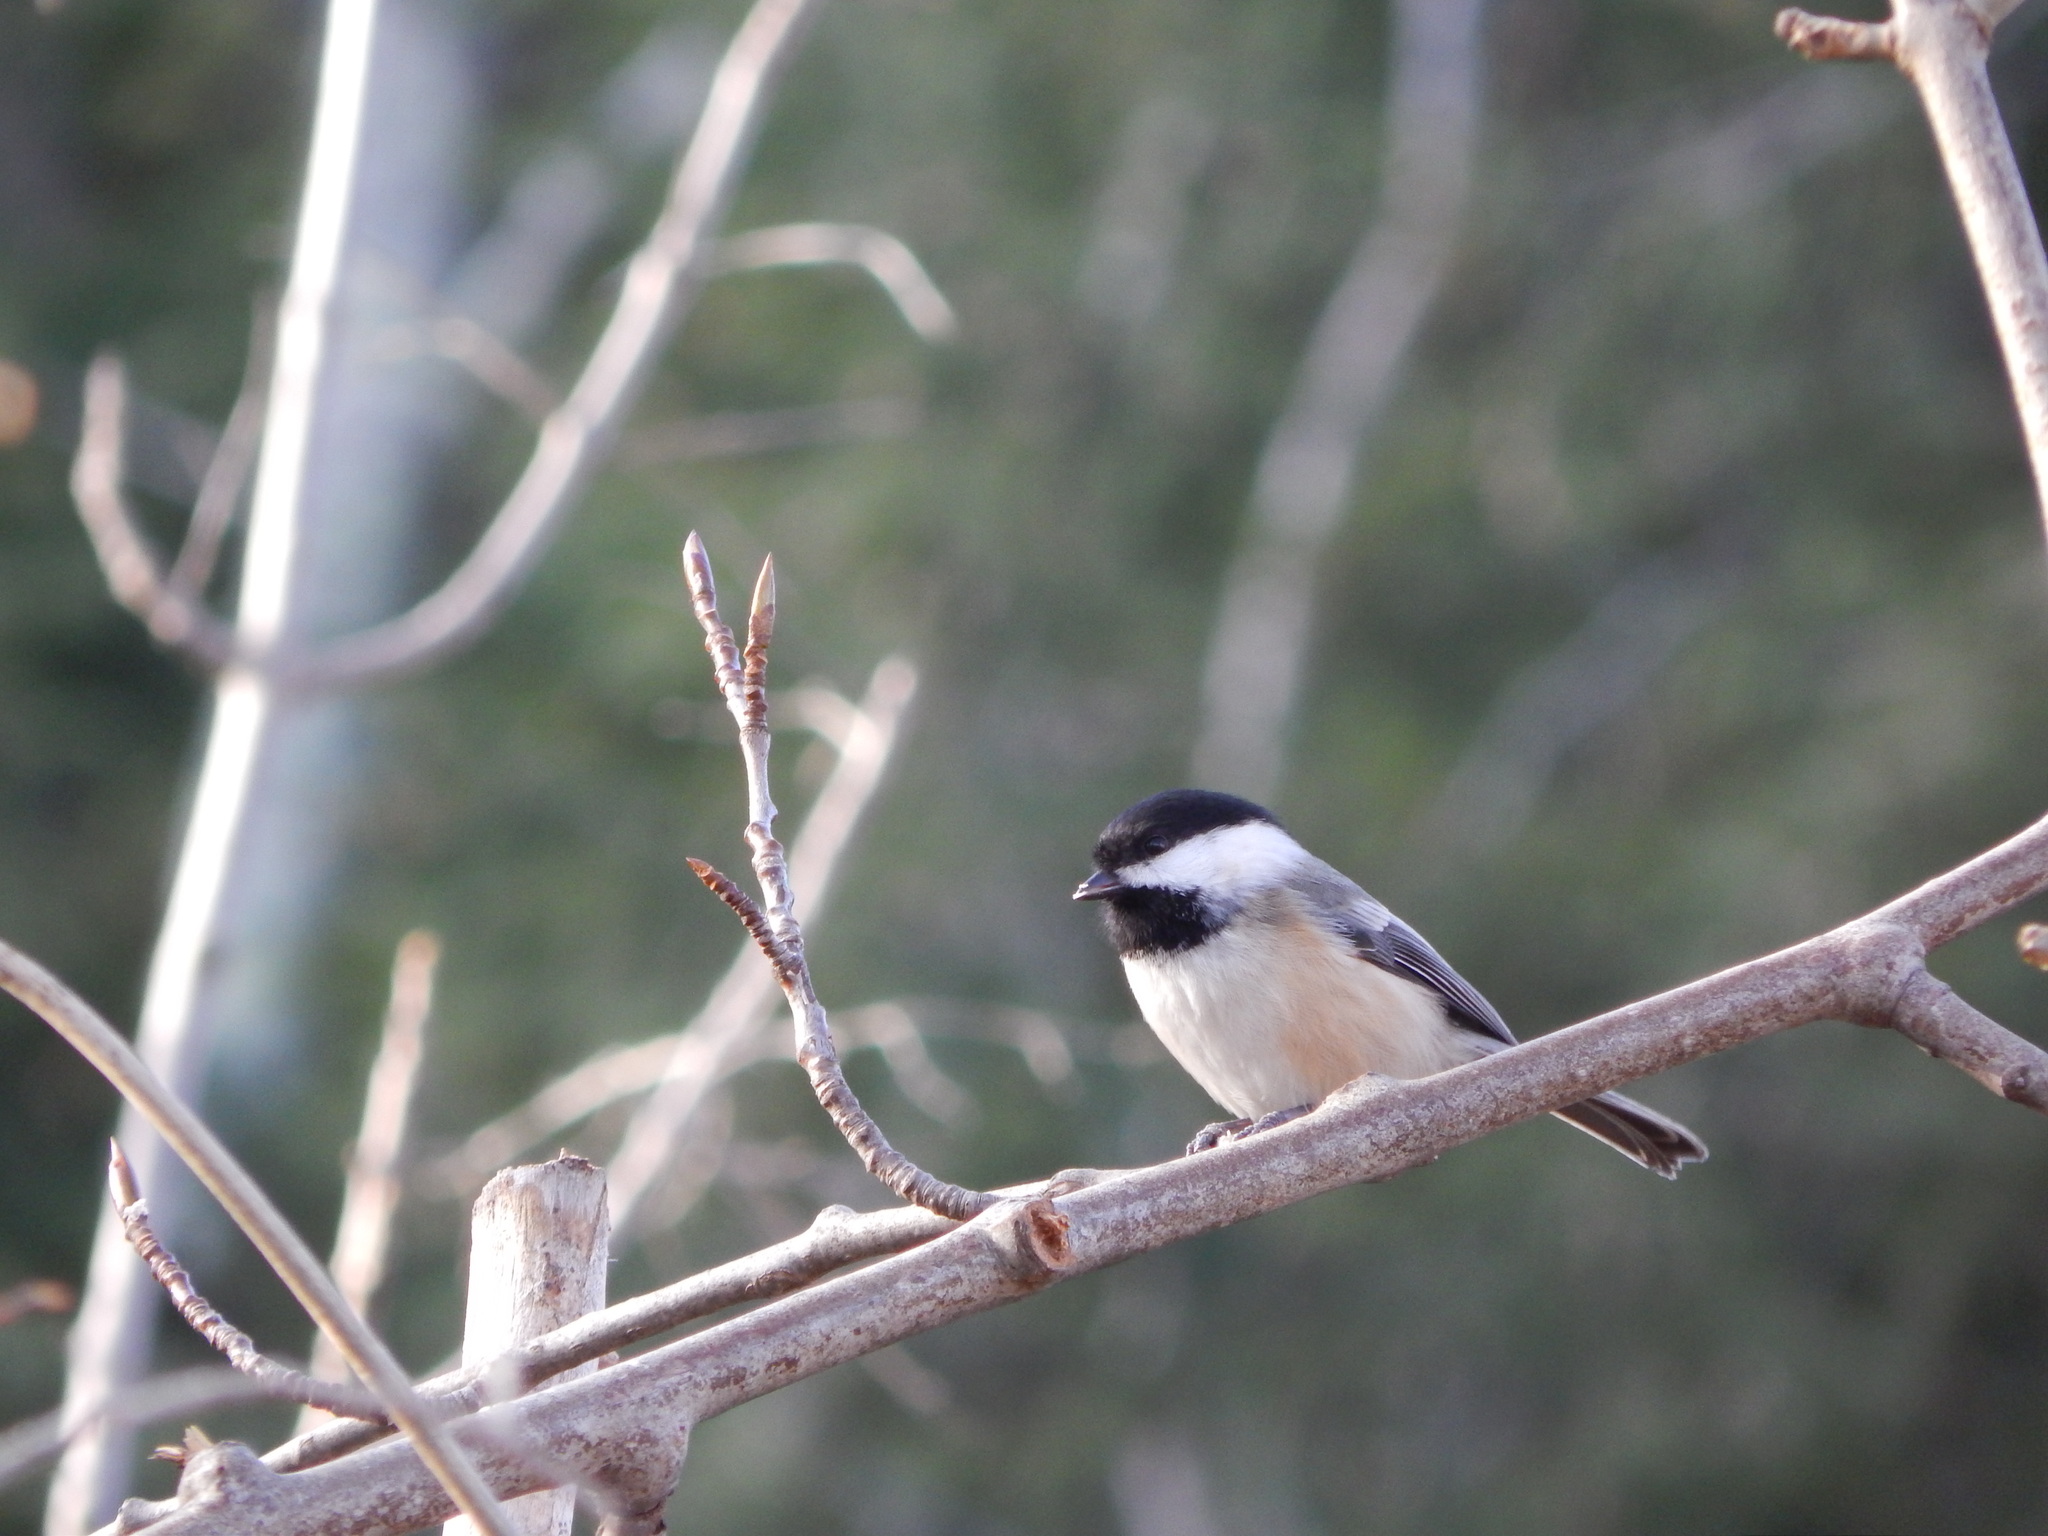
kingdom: Animalia
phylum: Chordata
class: Aves
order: Passeriformes
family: Paridae
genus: Poecile
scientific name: Poecile atricapillus
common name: Black-capped chickadee
